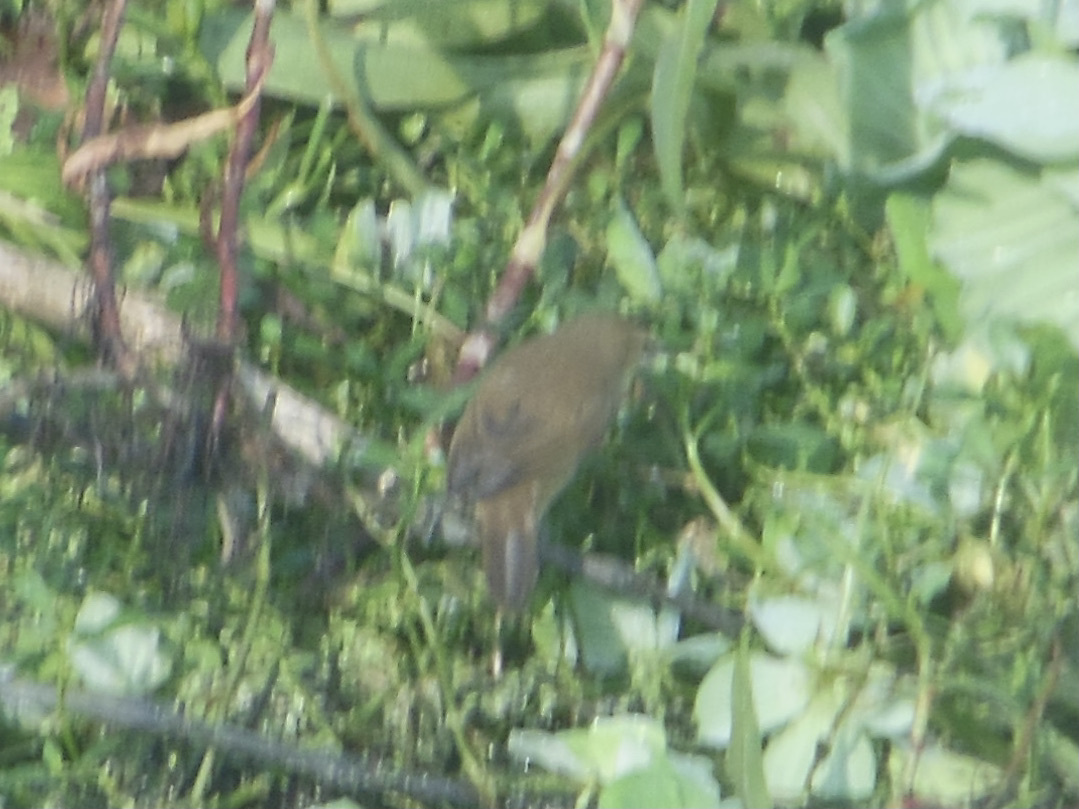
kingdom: Animalia
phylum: Chordata
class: Aves
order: Passeriformes
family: Acrocephalidae
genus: Acrocephalus
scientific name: Acrocephalus stentoreus
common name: Clamorous reed warbler
